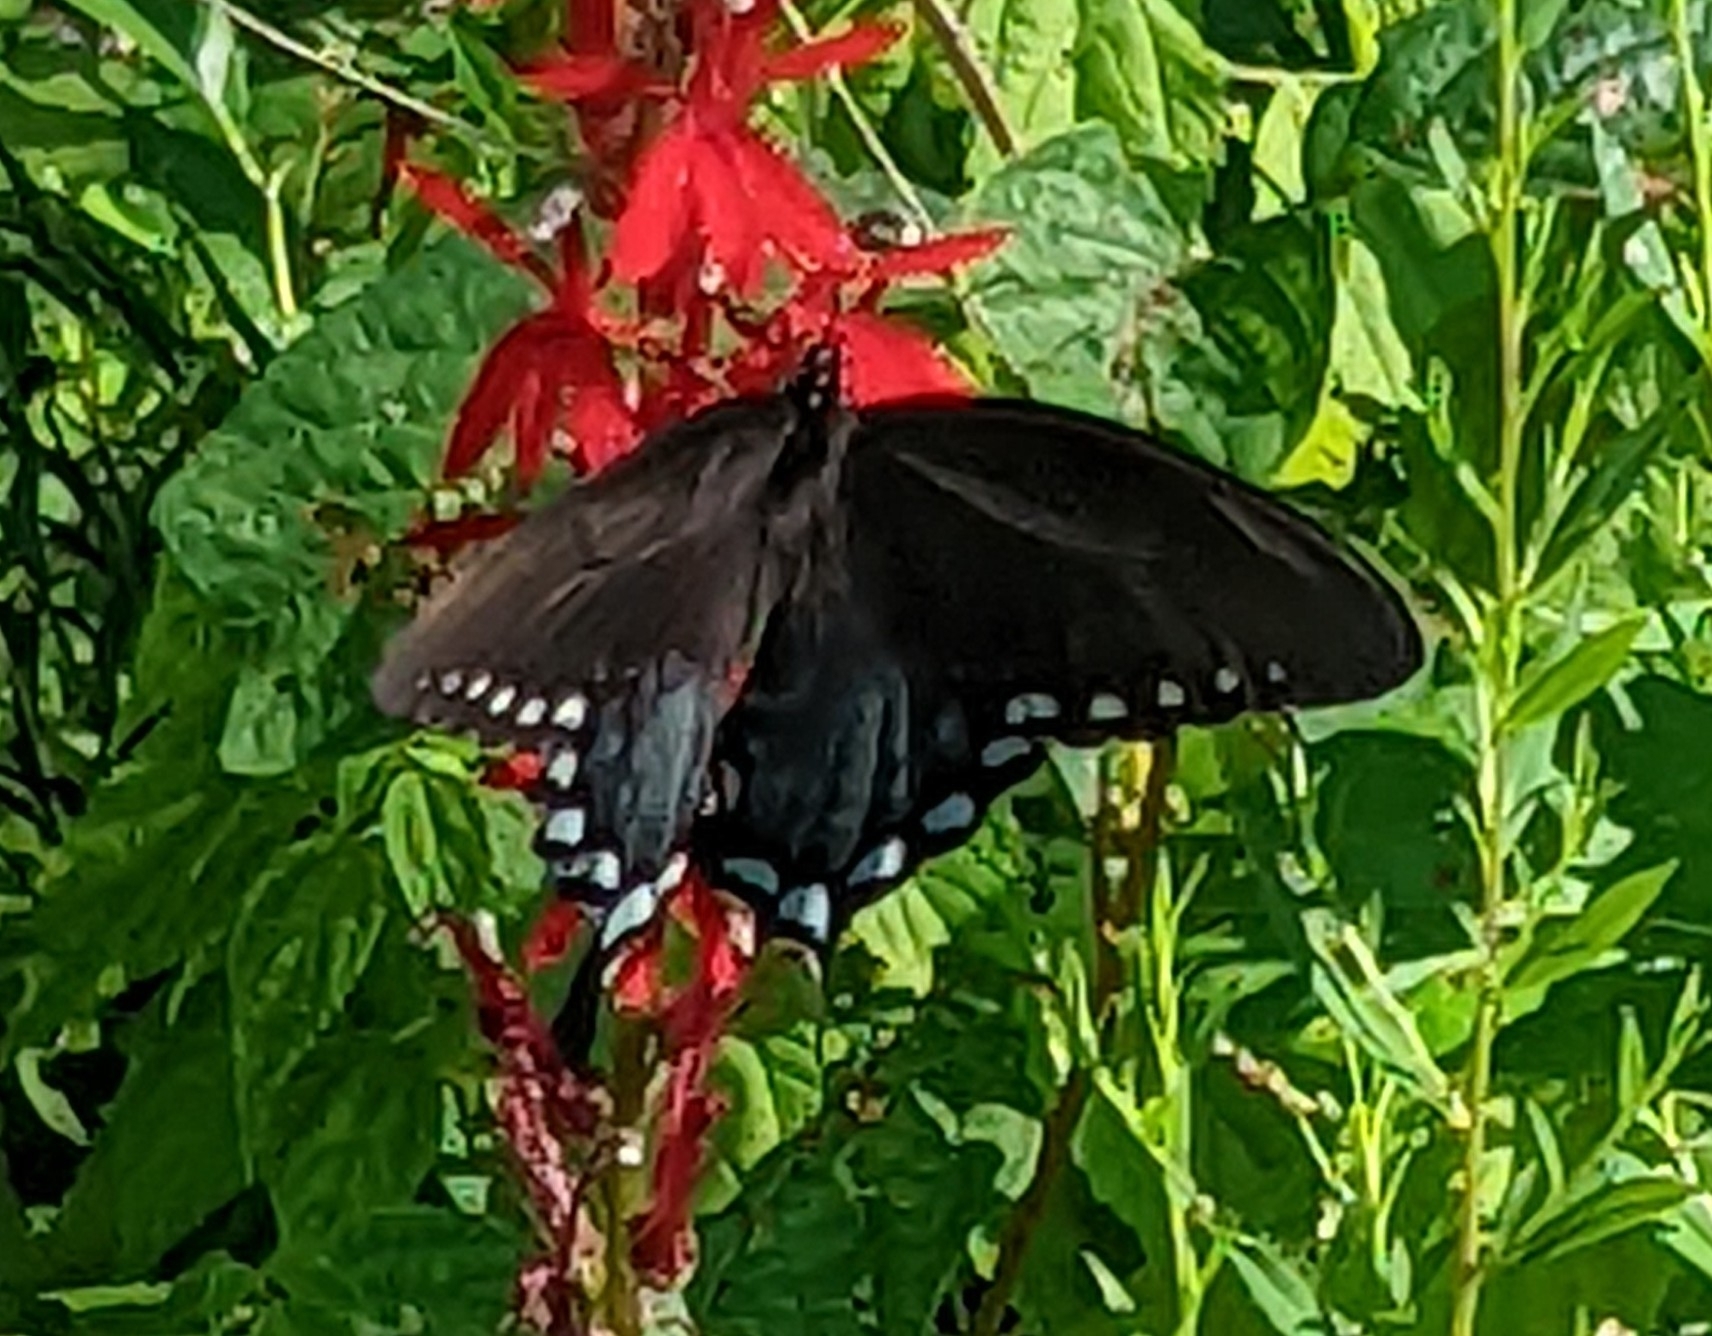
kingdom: Animalia
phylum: Arthropoda
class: Insecta
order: Lepidoptera
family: Papilionidae
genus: Papilio
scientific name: Papilio troilus
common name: Spicebush swallowtail
